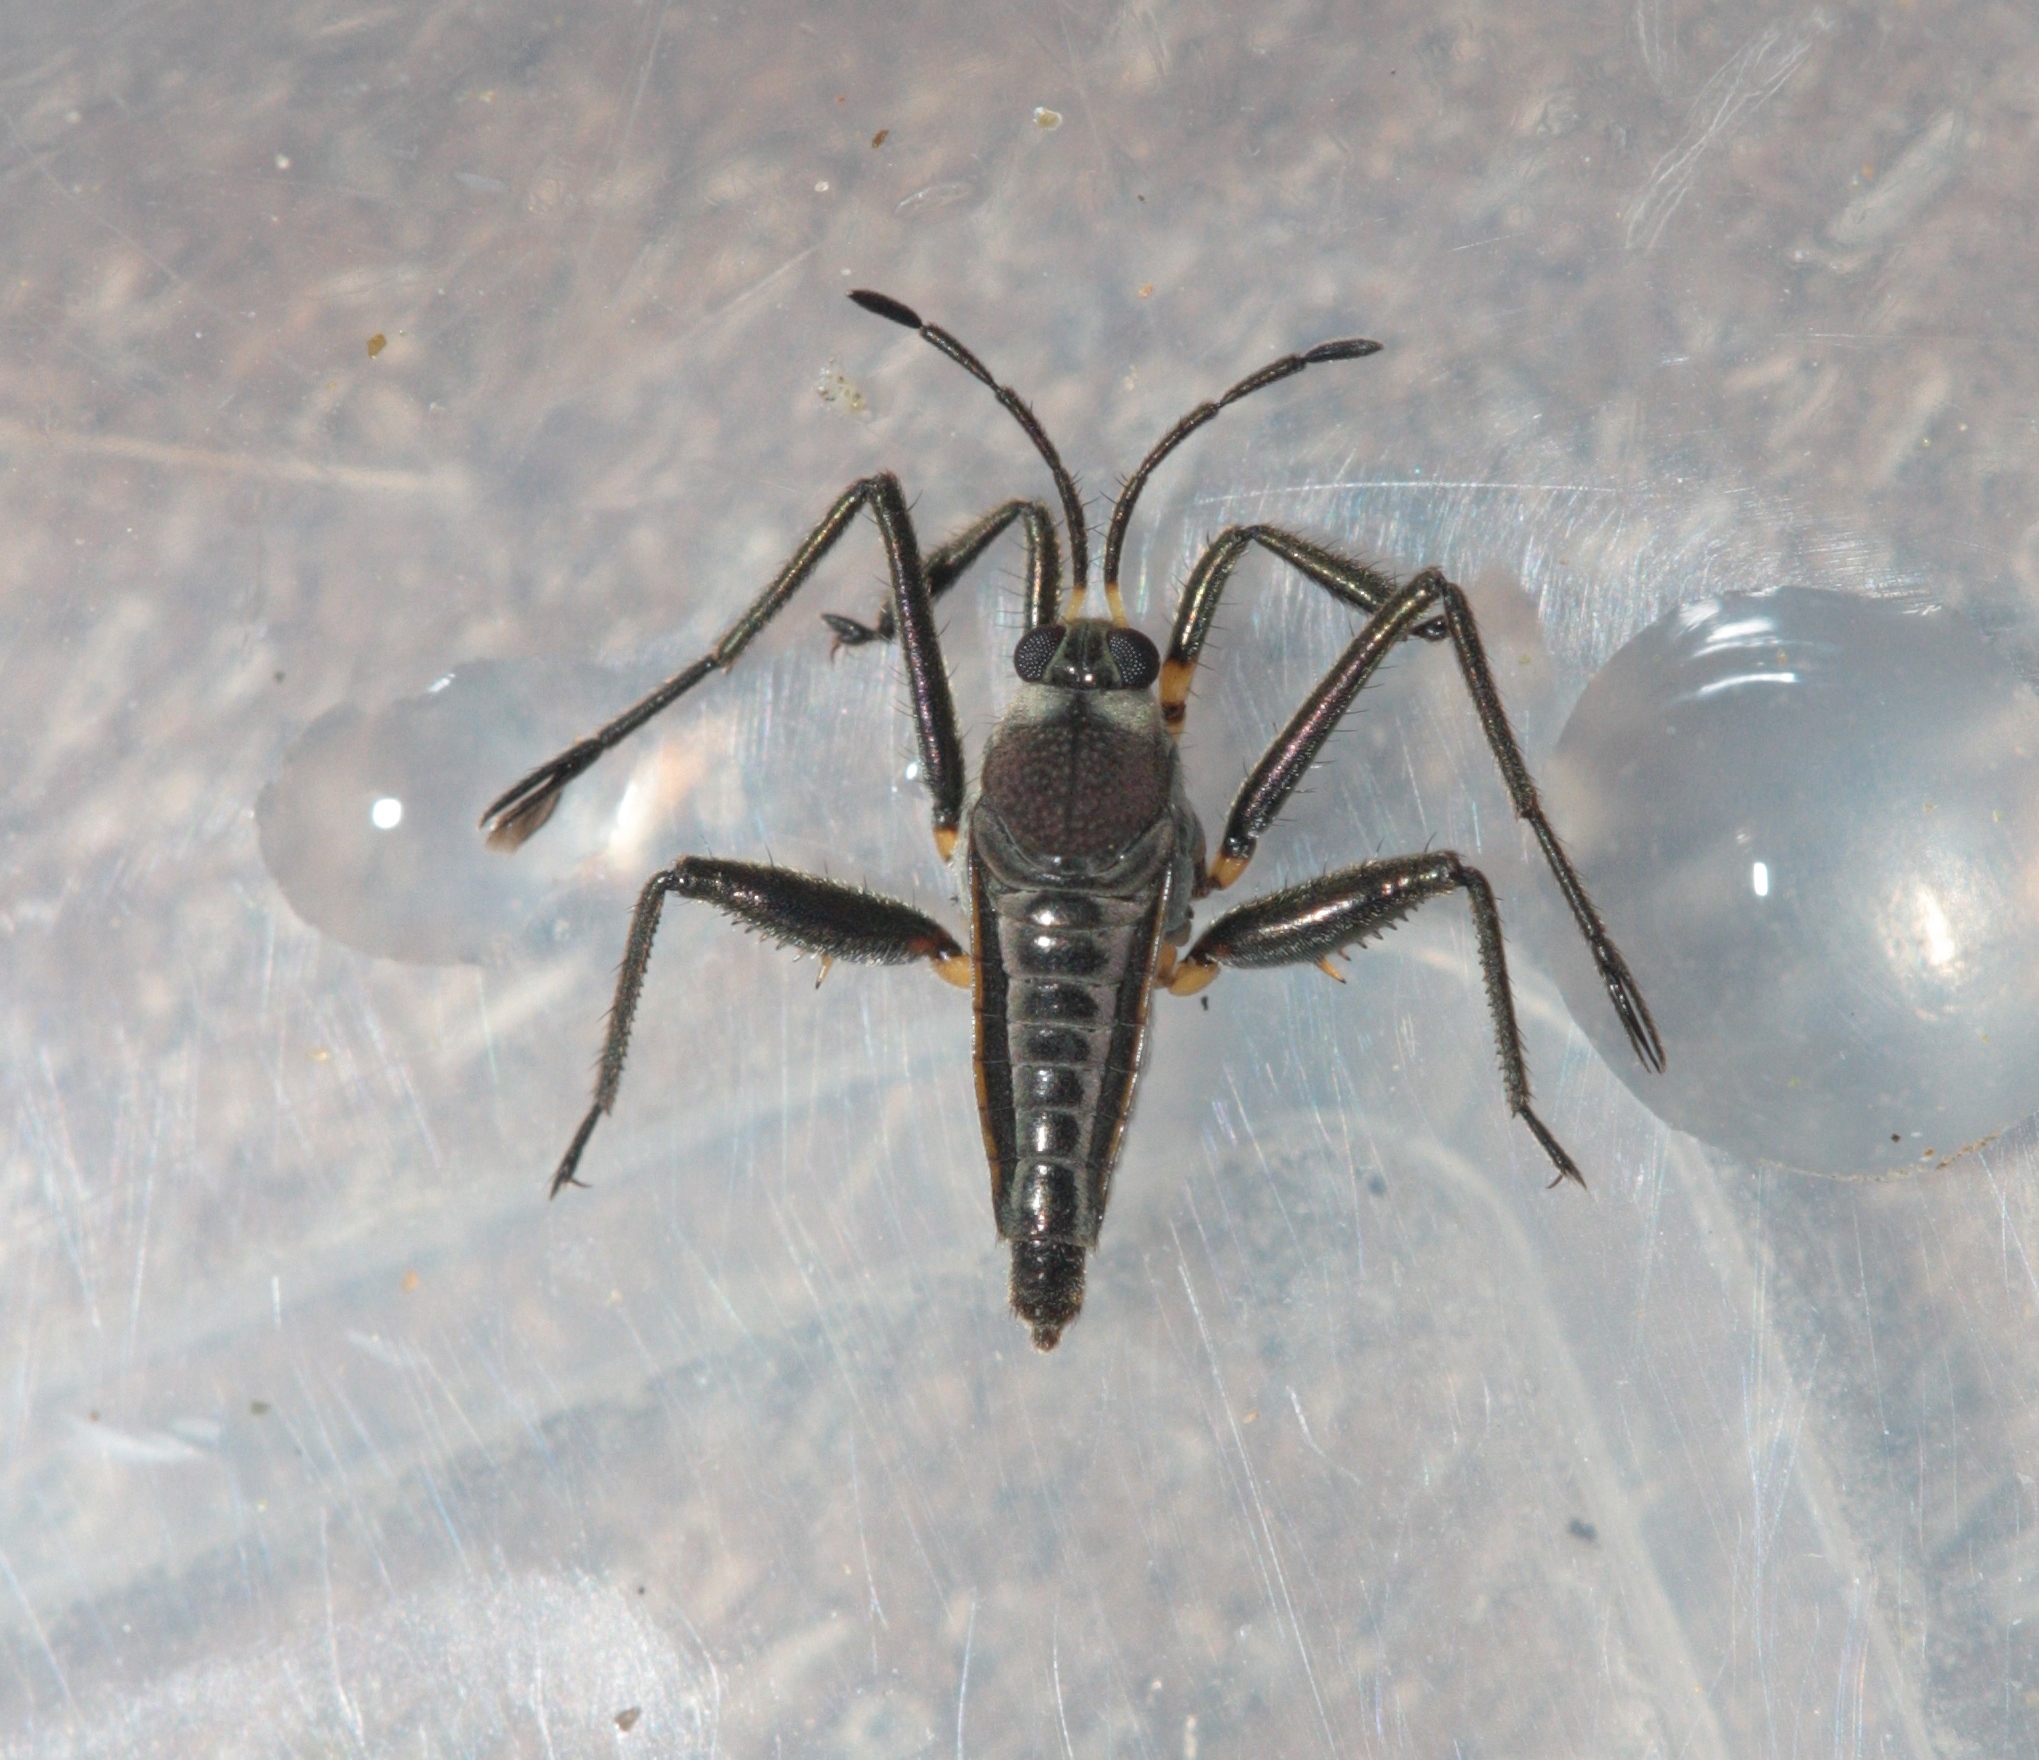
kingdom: Animalia
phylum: Arthropoda
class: Insecta
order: Hemiptera
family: Veliidae
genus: Rhagovelia
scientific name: Rhagovelia distincta
